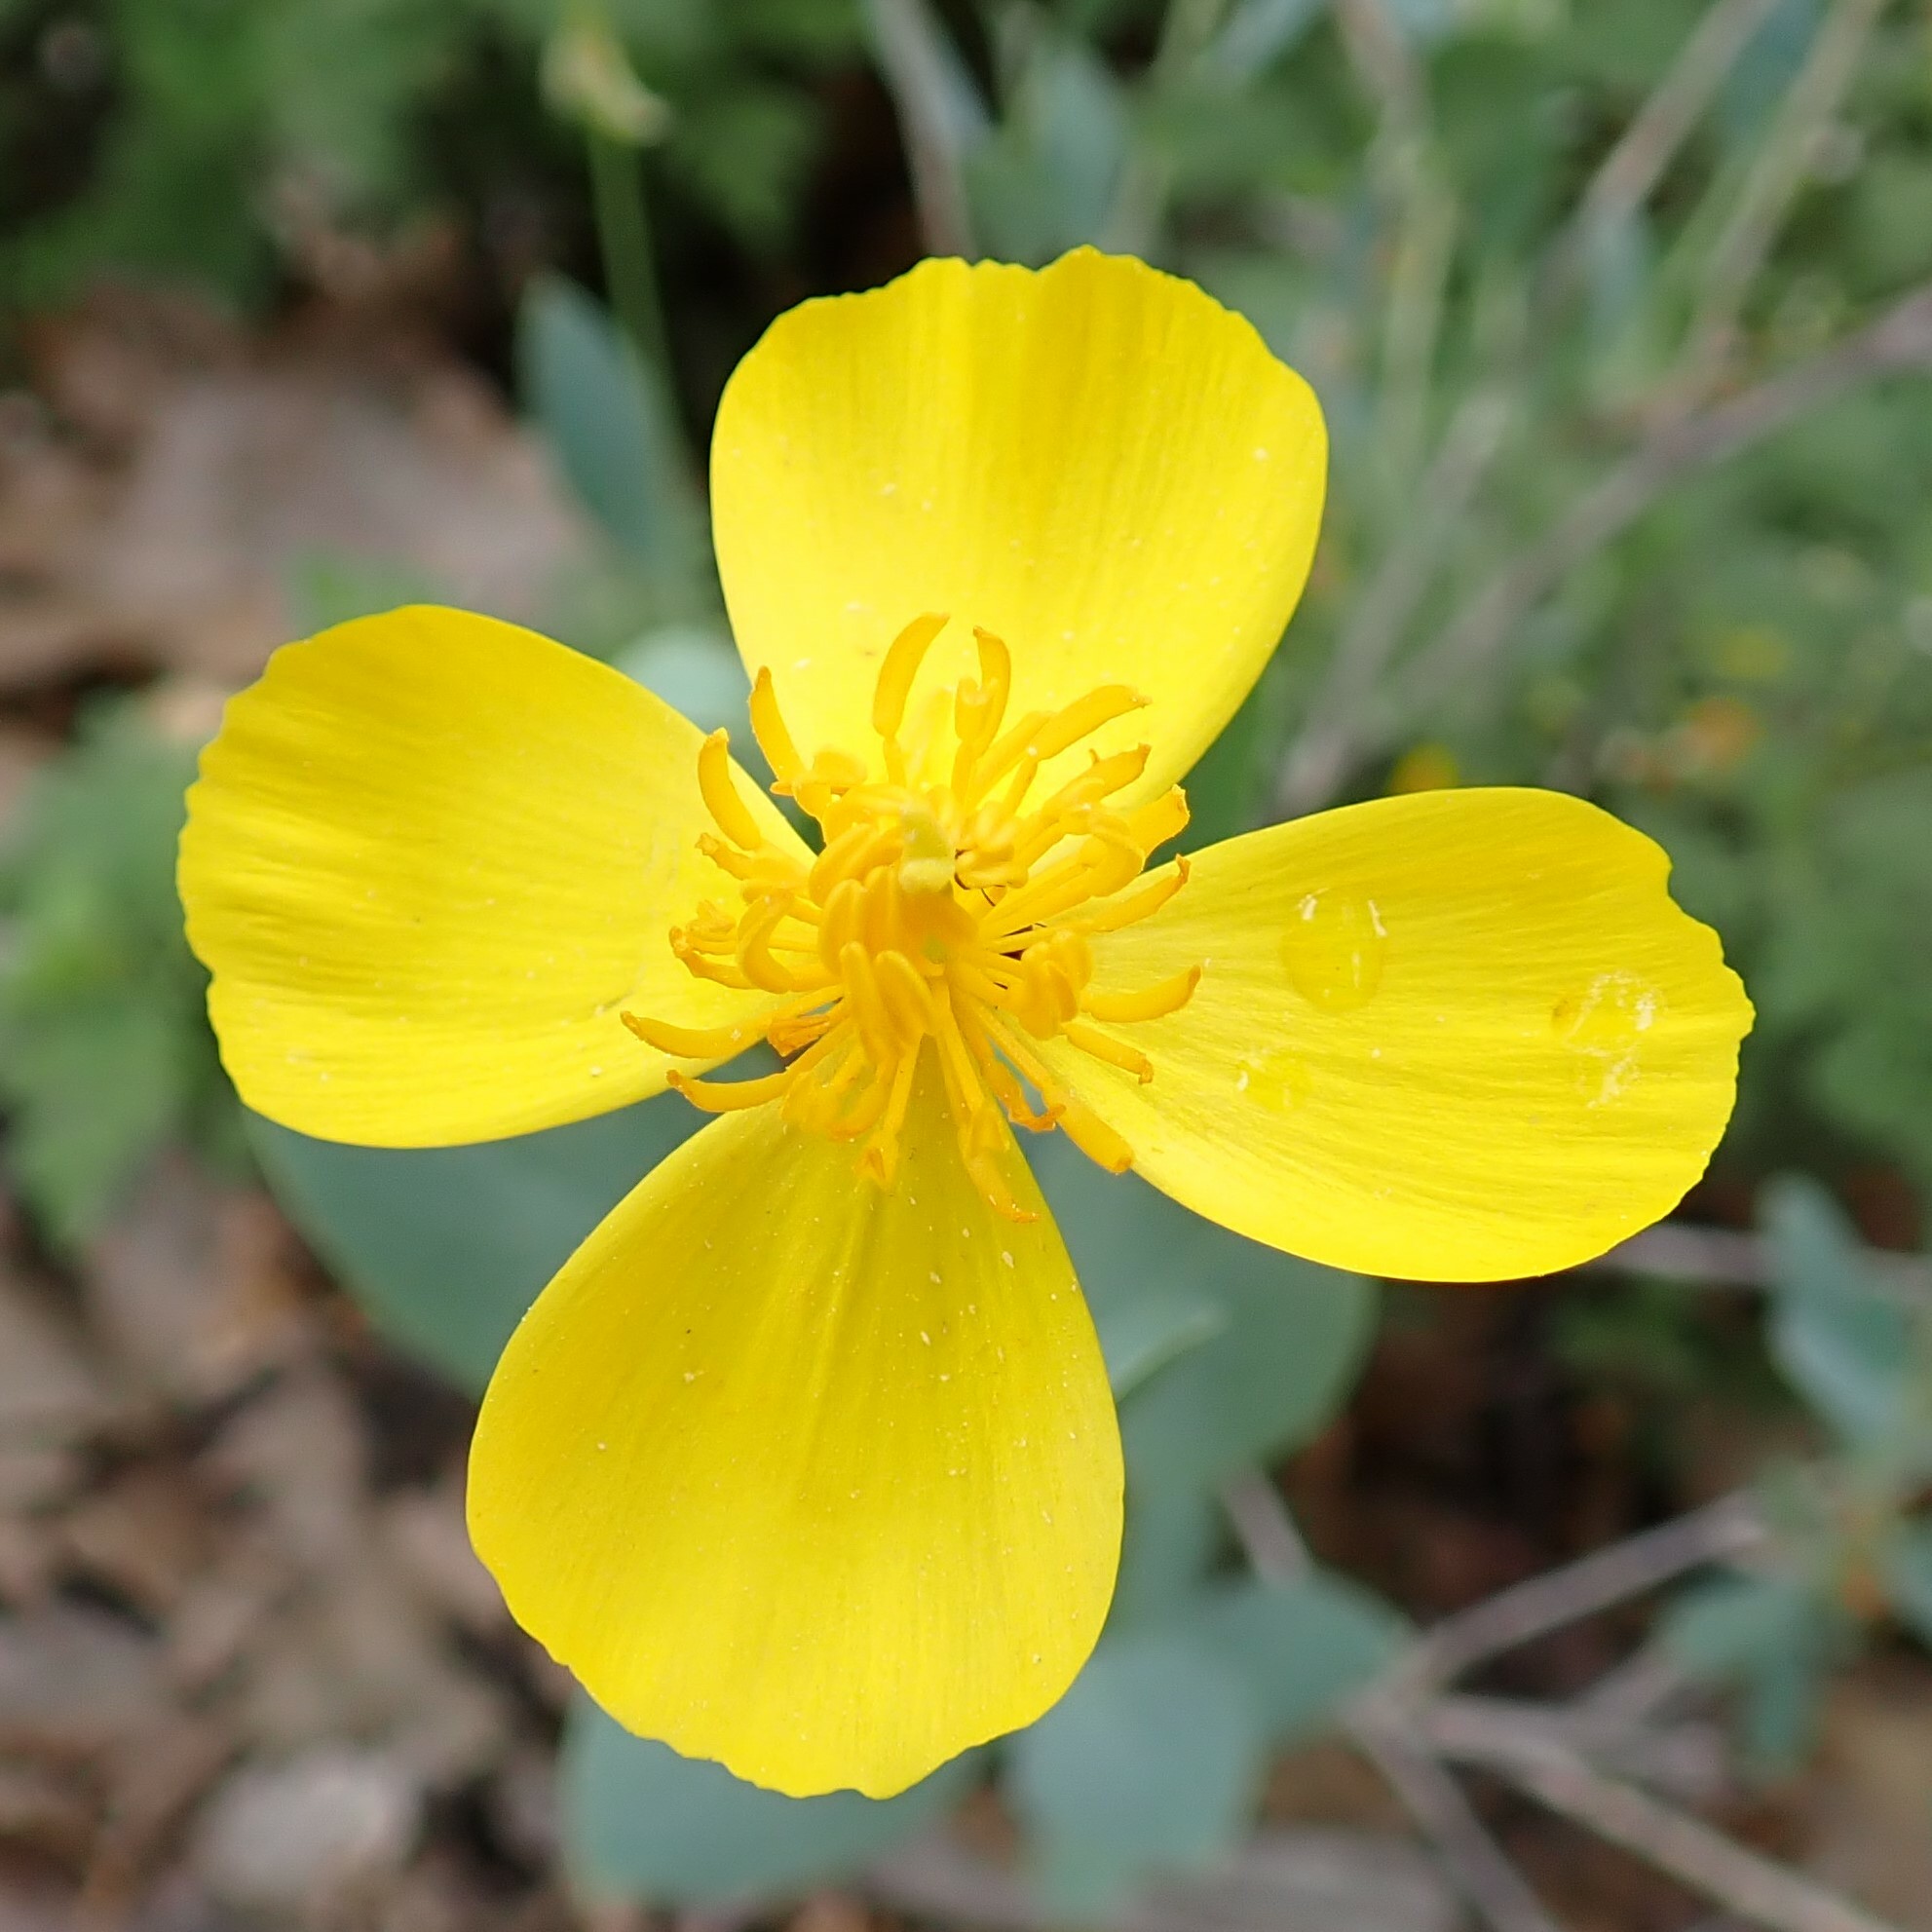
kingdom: Plantae
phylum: Tracheophyta
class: Magnoliopsida
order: Ranunculales
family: Papaveraceae
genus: Dendromecon
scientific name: Dendromecon rigida
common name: Tree poppy
